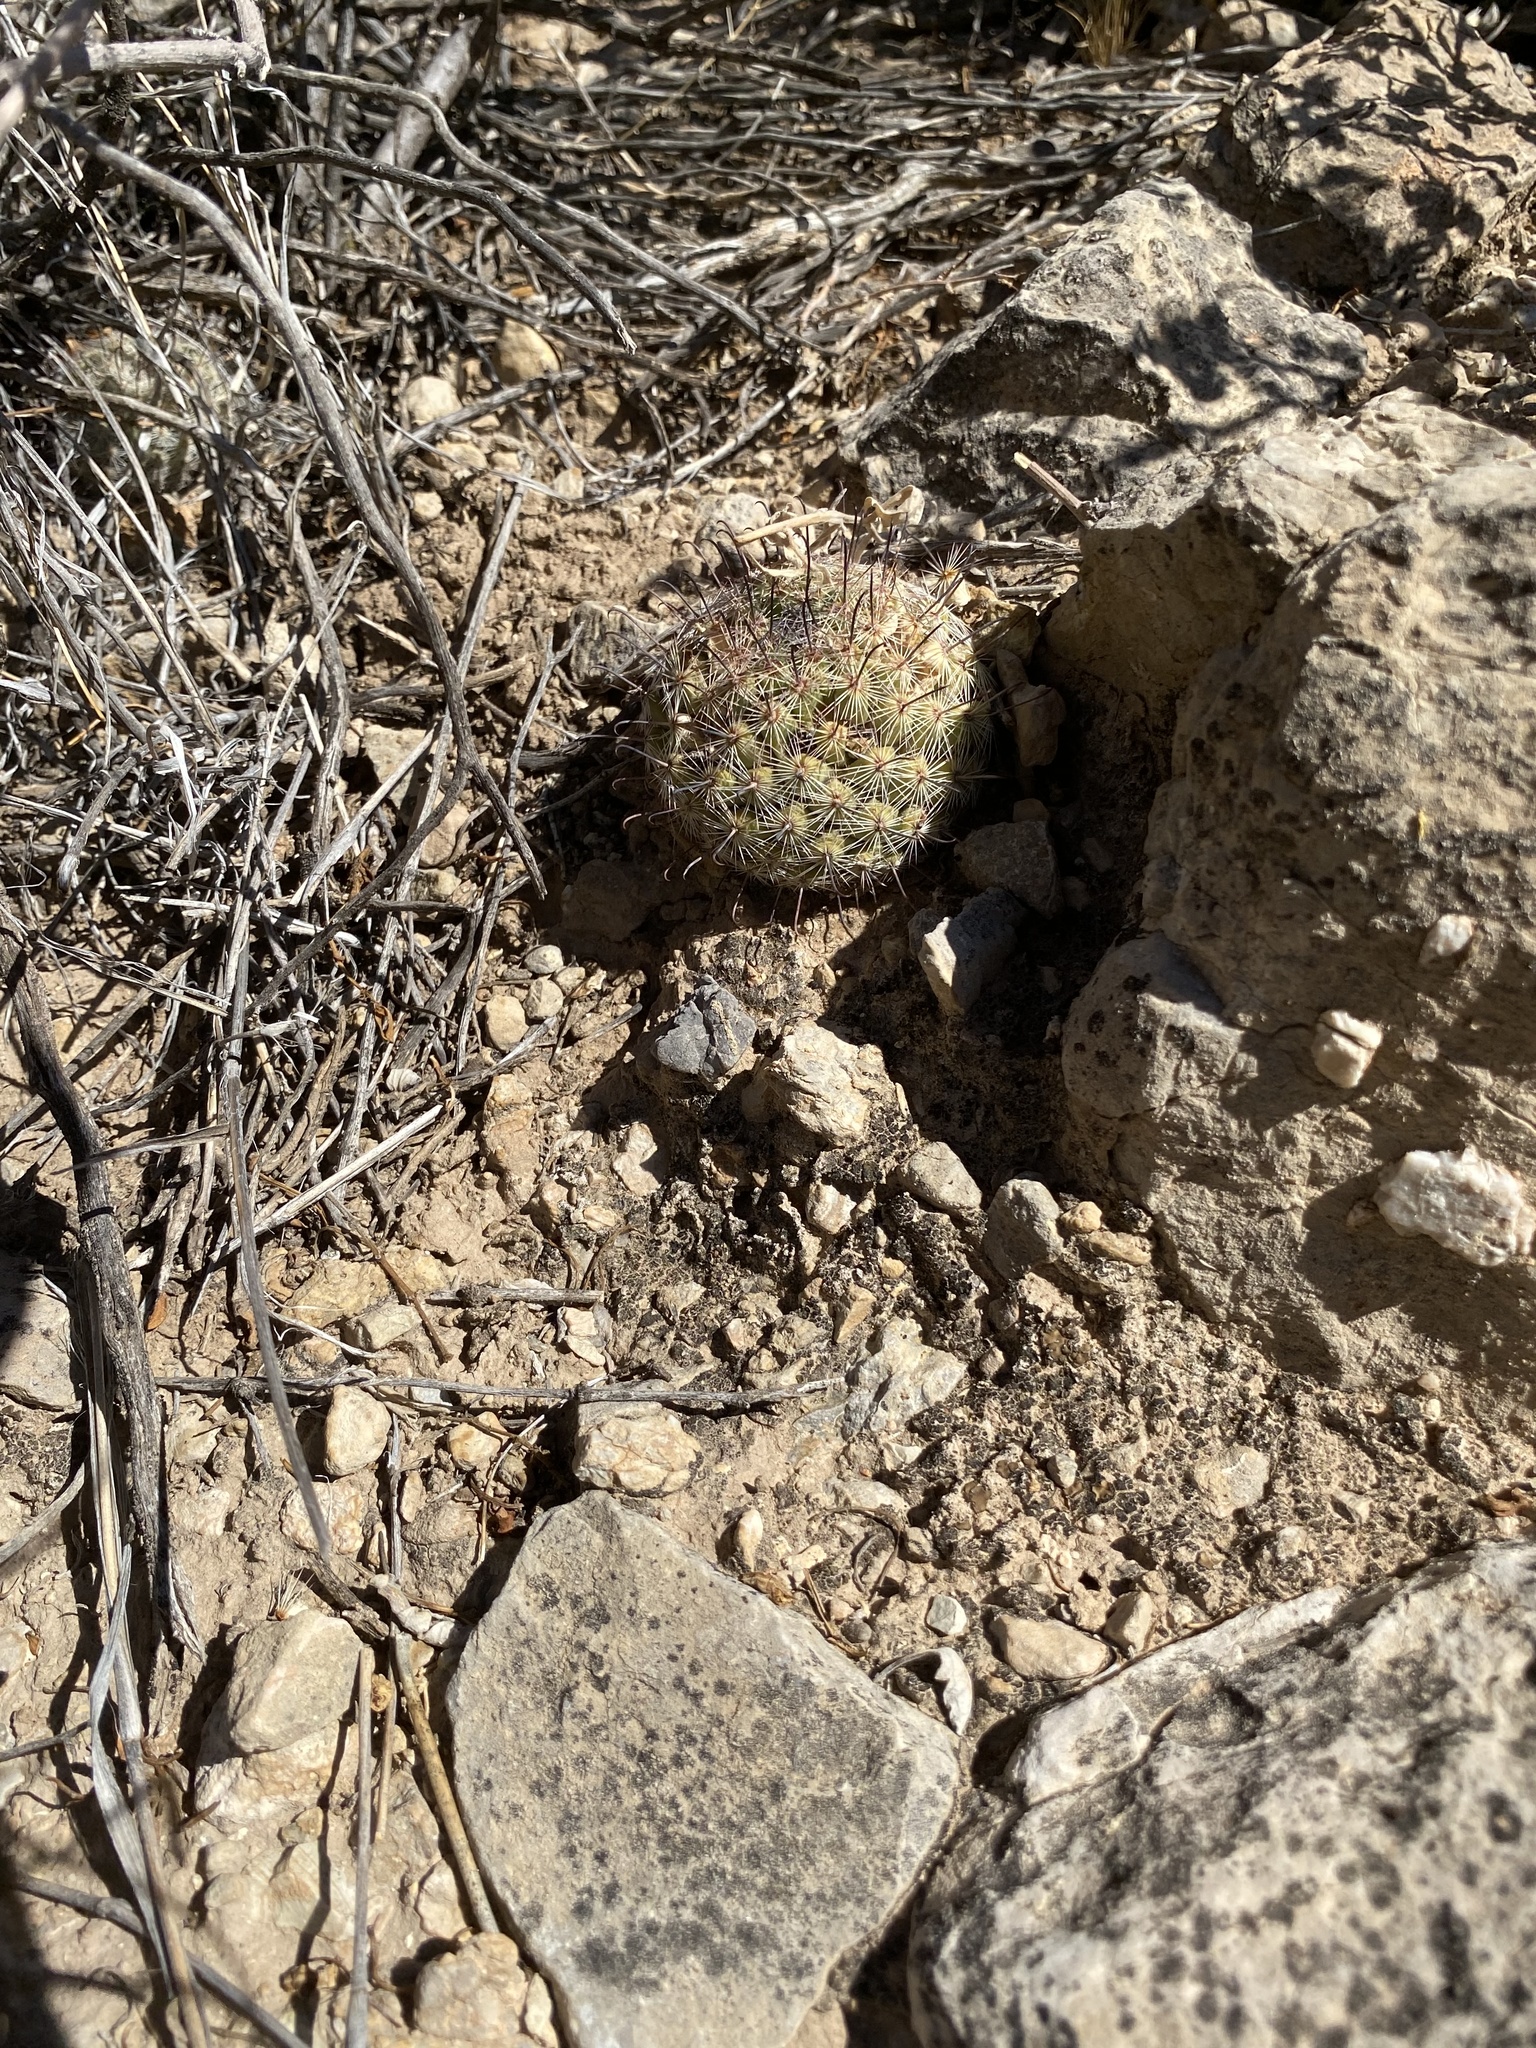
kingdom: Plantae
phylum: Tracheophyta
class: Magnoliopsida
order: Caryophyllales
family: Cactaceae
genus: Cochemiea
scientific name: Cochemiea grahamii
